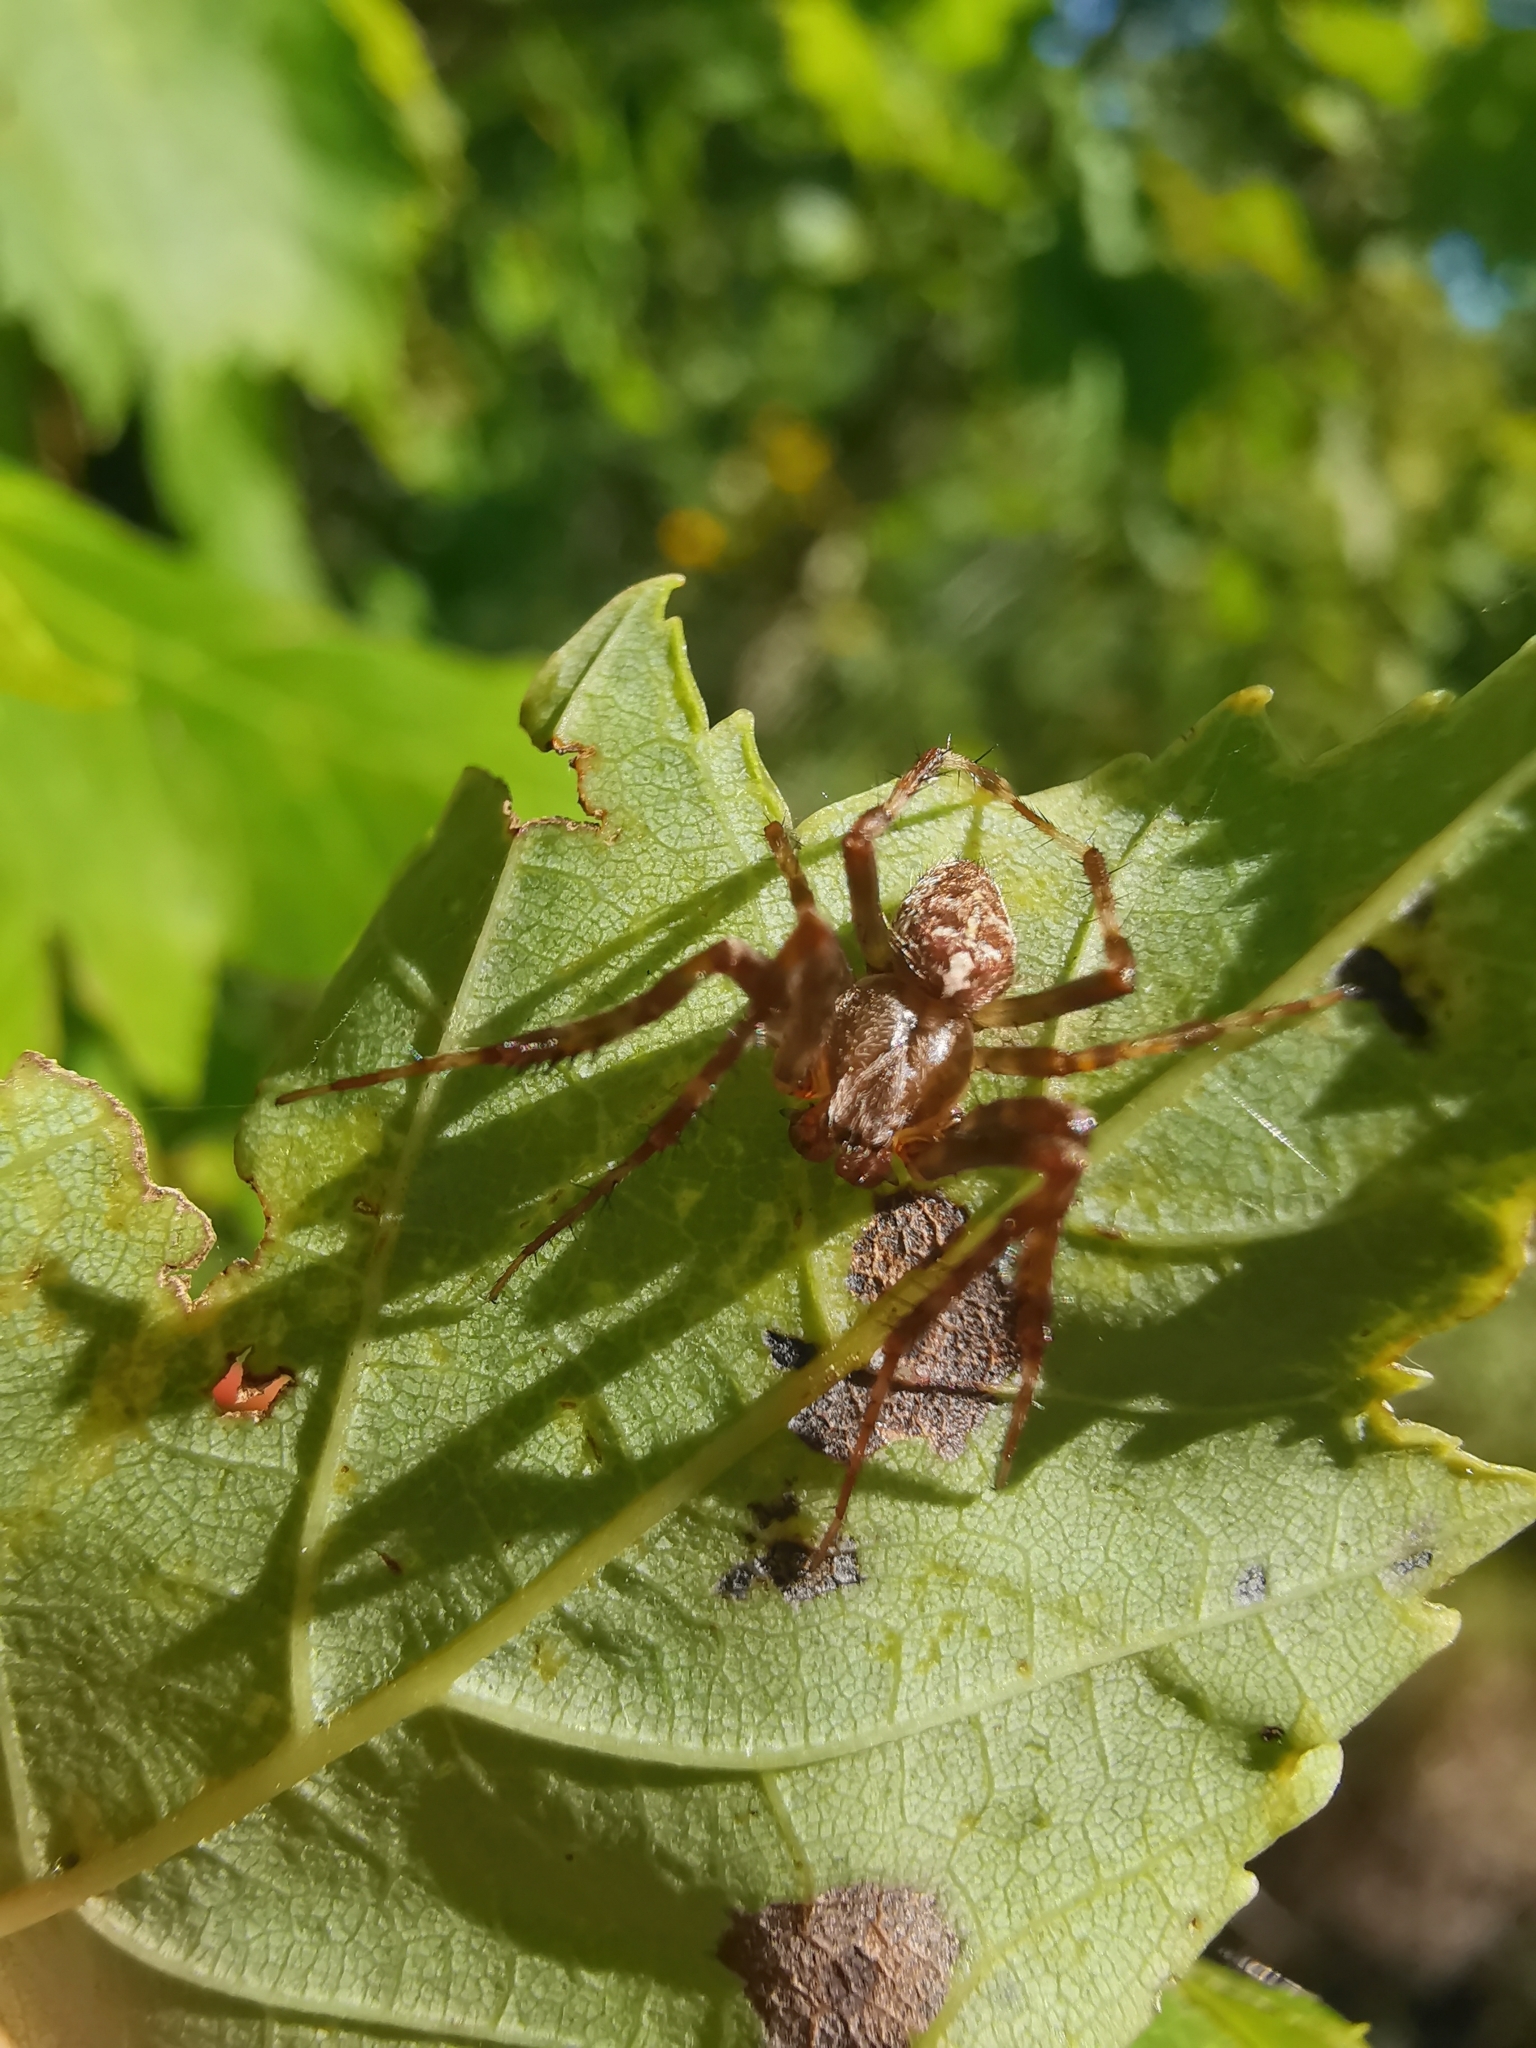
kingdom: Animalia
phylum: Arthropoda
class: Arachnida
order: Araneae
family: Araneidae
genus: Araneus
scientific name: Araneus diadematus
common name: Cross orbweaver
